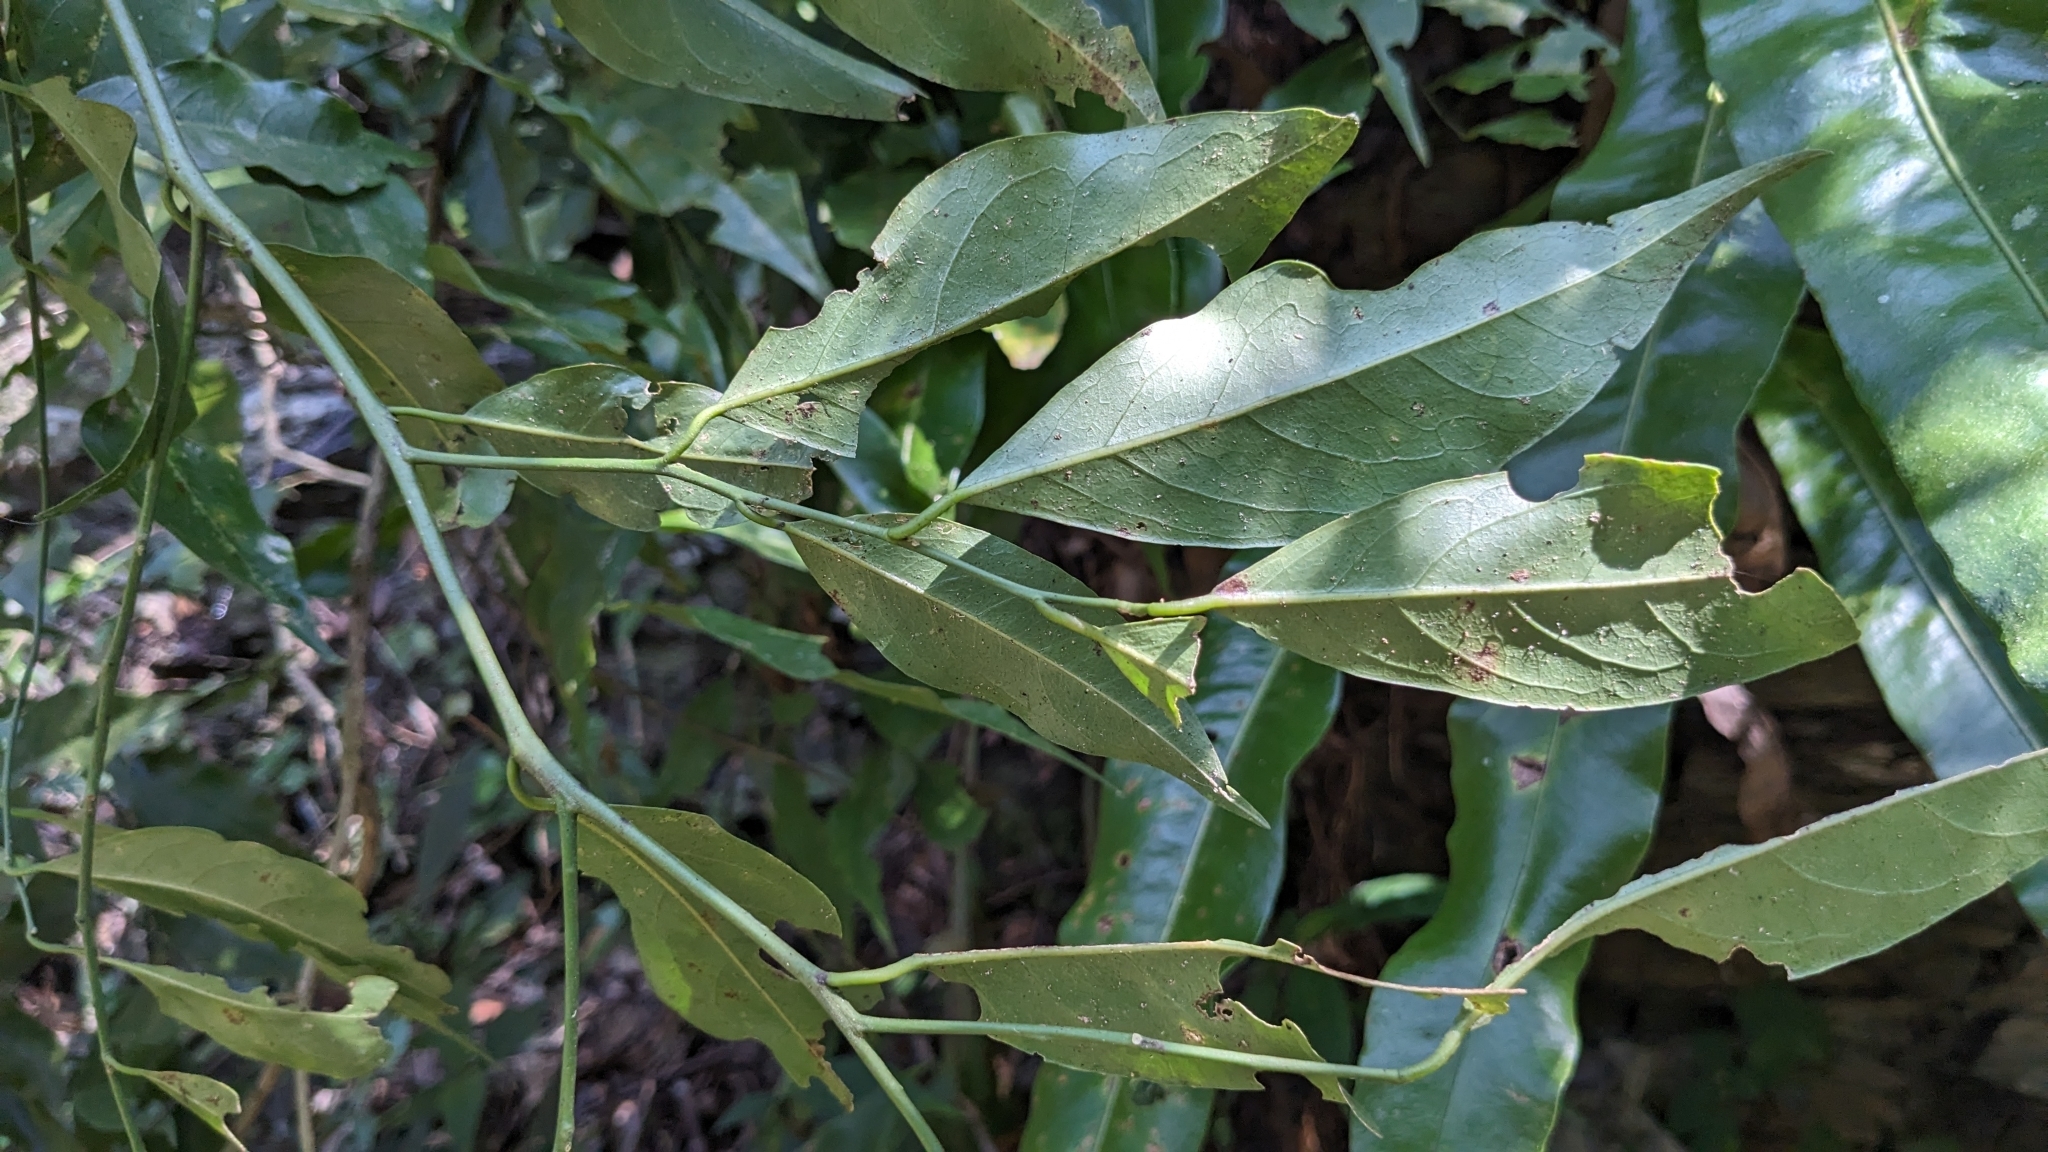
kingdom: Plantae
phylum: Tracheophyta
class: Magnoliopsida
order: Brassicales
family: Capparaceae
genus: Capparis
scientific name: Capparis sabiifolia
